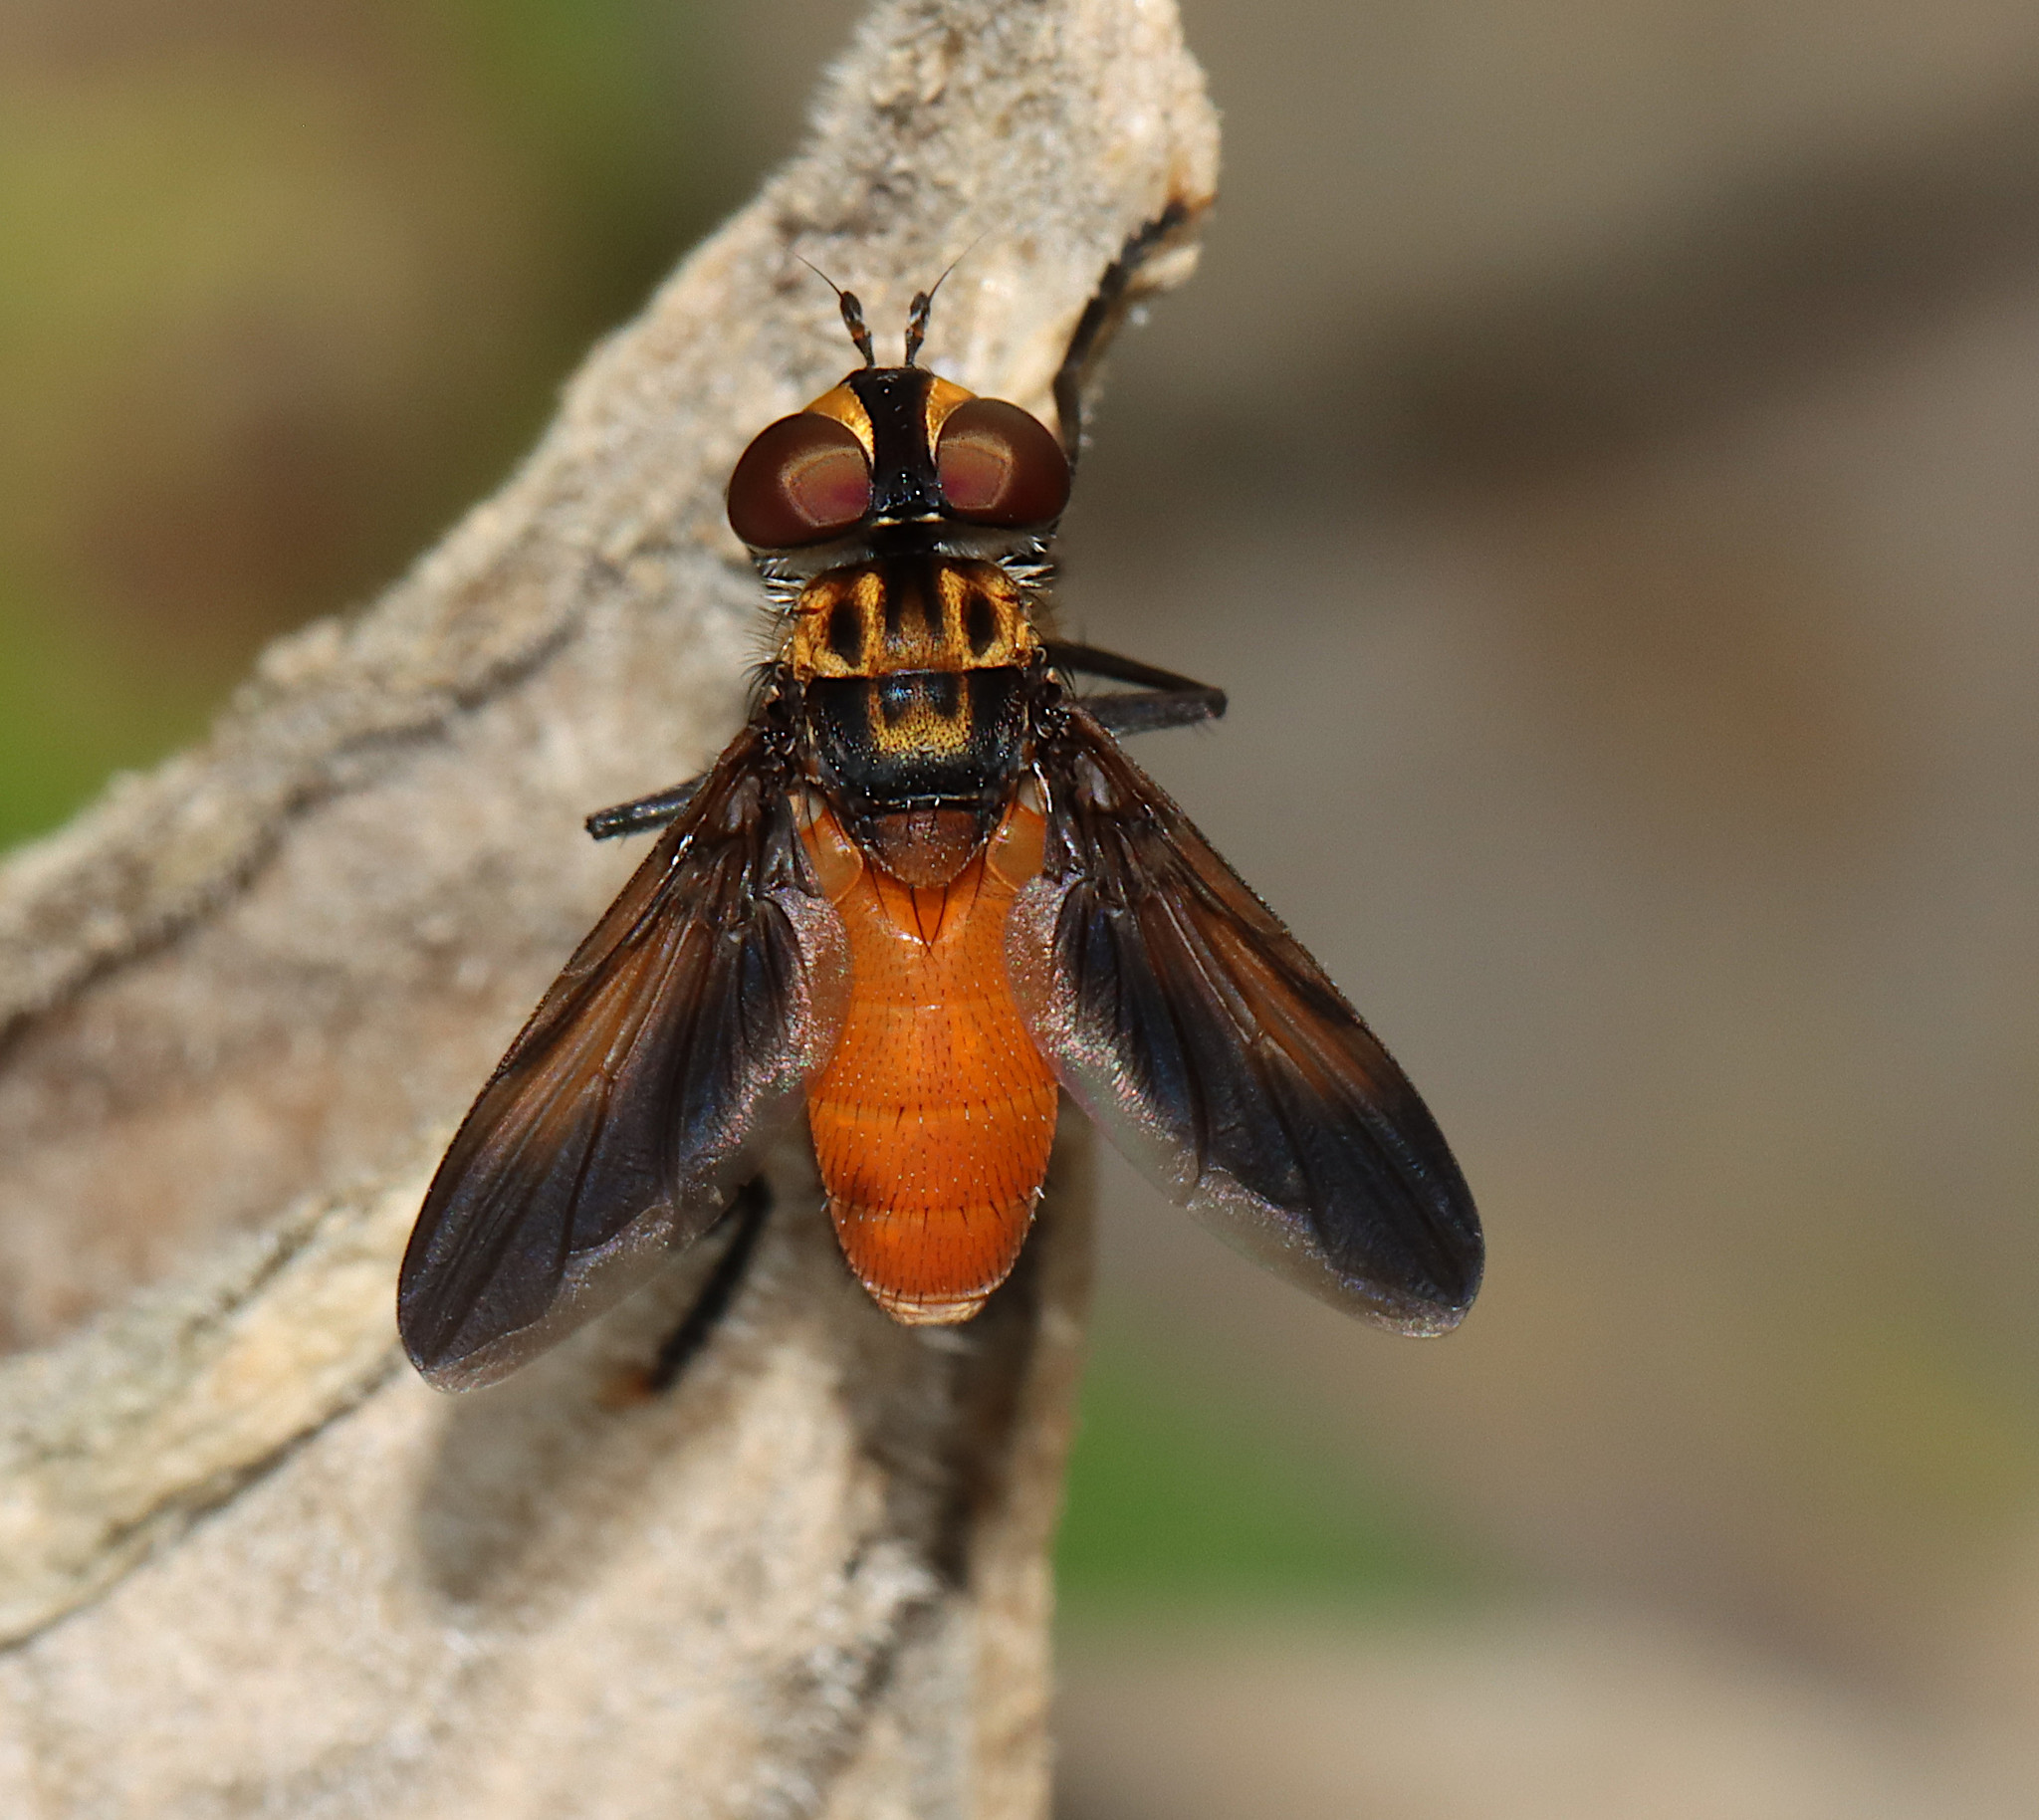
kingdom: Animalia
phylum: Arthropoda
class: Insecta
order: Diptera
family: Tachinidae
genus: Trichopoda
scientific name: Trichopoda pennipes
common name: Tachinid fly
